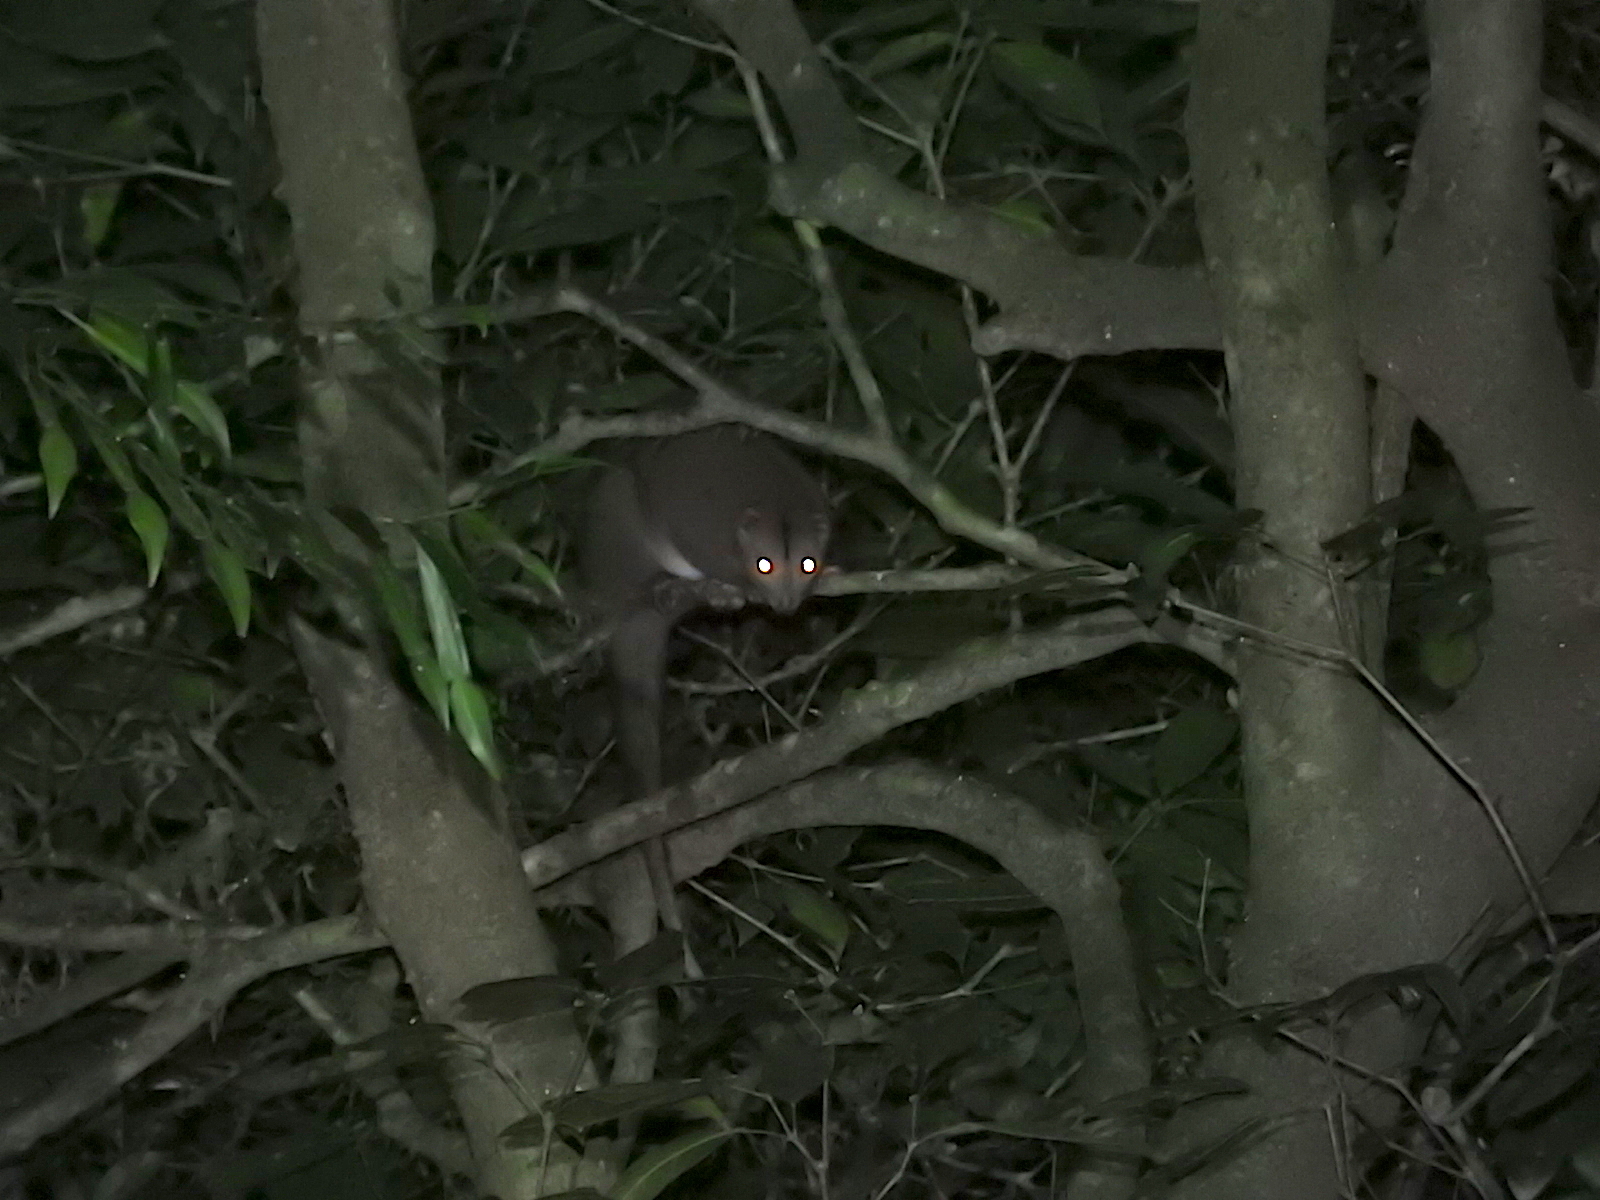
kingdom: Animalia
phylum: Chordata
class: Mammalia
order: Diprotodontia
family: Pseudocheiridae
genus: Pseudochirulus
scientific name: Pseudochirulus cinereus
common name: Cinereous ringtail
